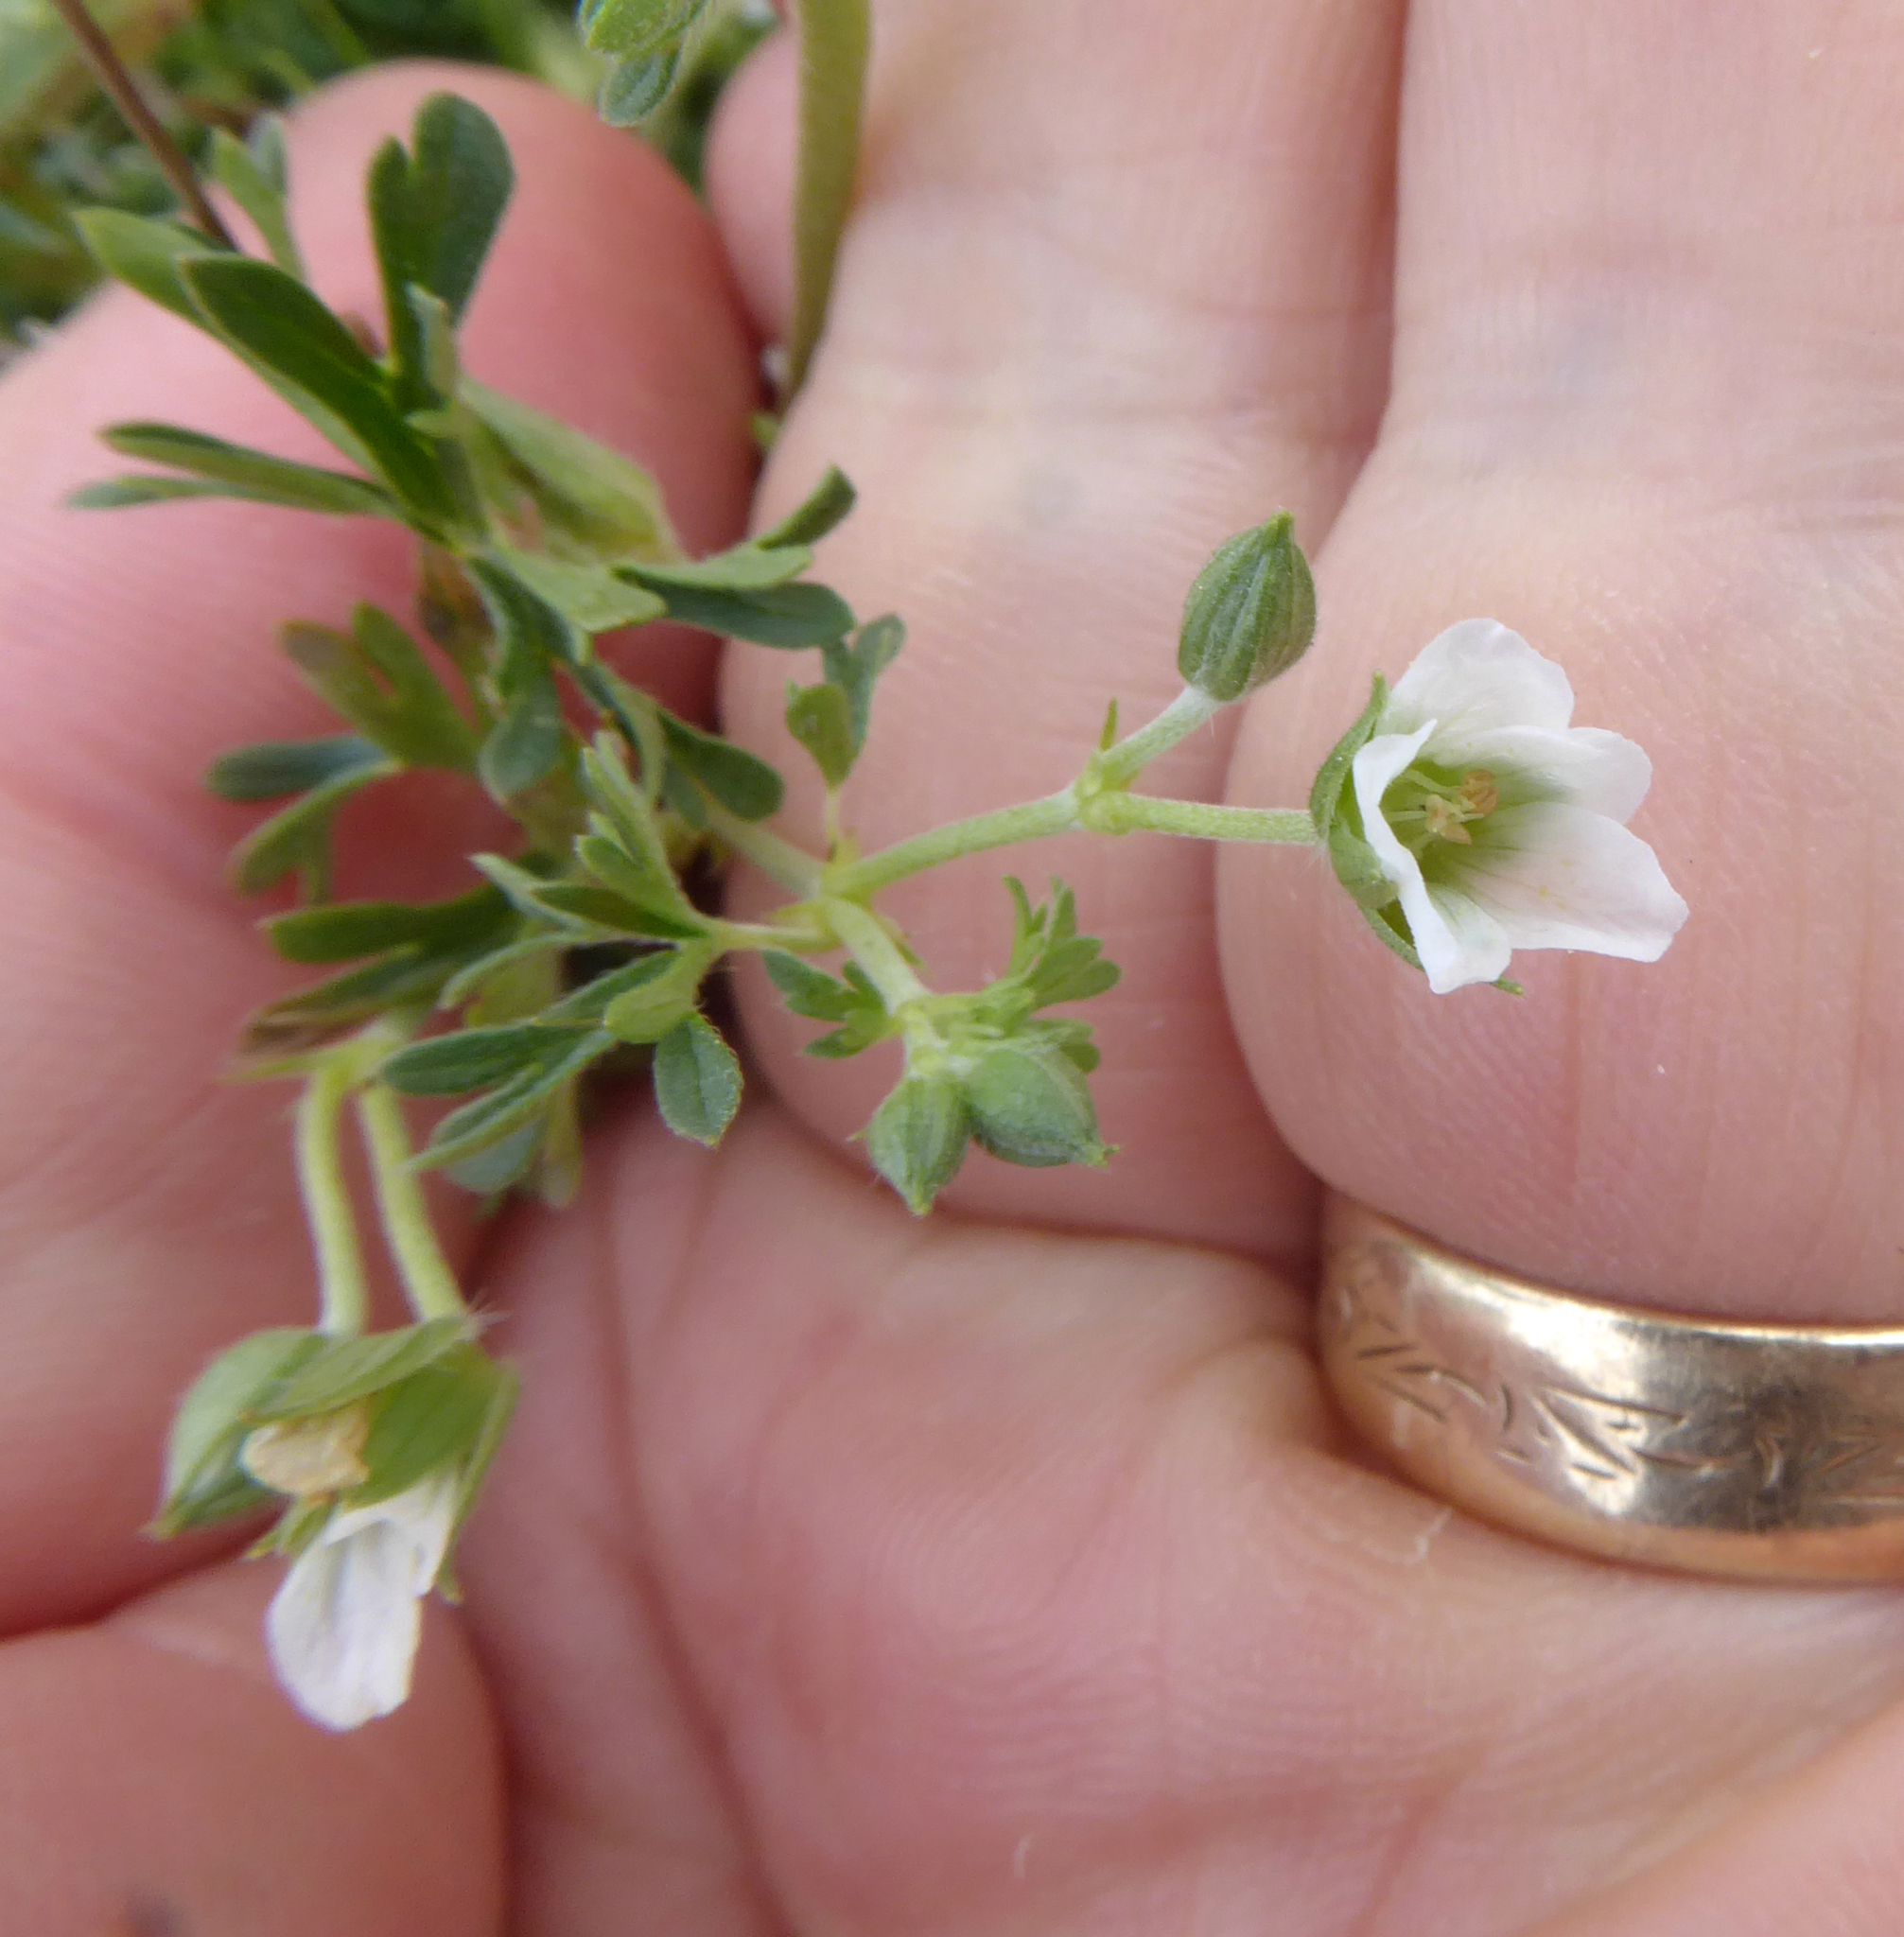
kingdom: Plantae
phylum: Tracheophyta
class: Magnoliopsida
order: Geraniales
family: Geraniaceae
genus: Geranium
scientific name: Geranium retrorsum
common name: New zealand geranium
